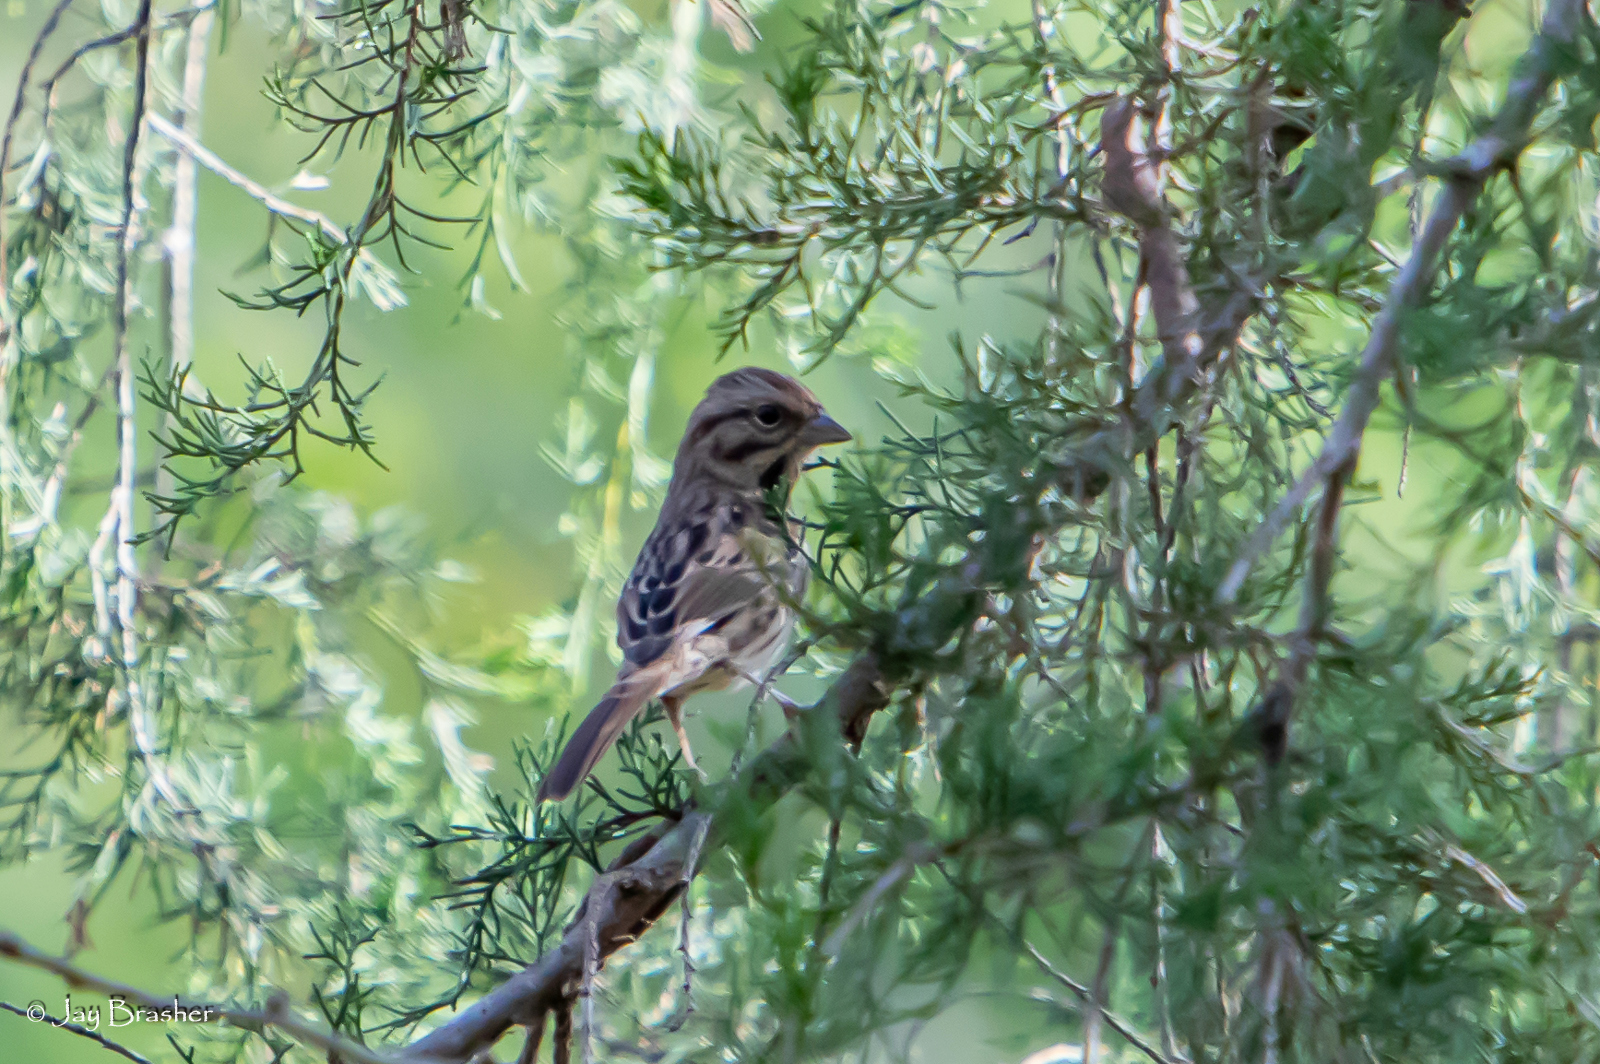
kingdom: Animalia
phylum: Chordata
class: Aves
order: Passeriformes
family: Passerellidae
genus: Melospiza
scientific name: Melospiza melodia
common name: Song sparrow
